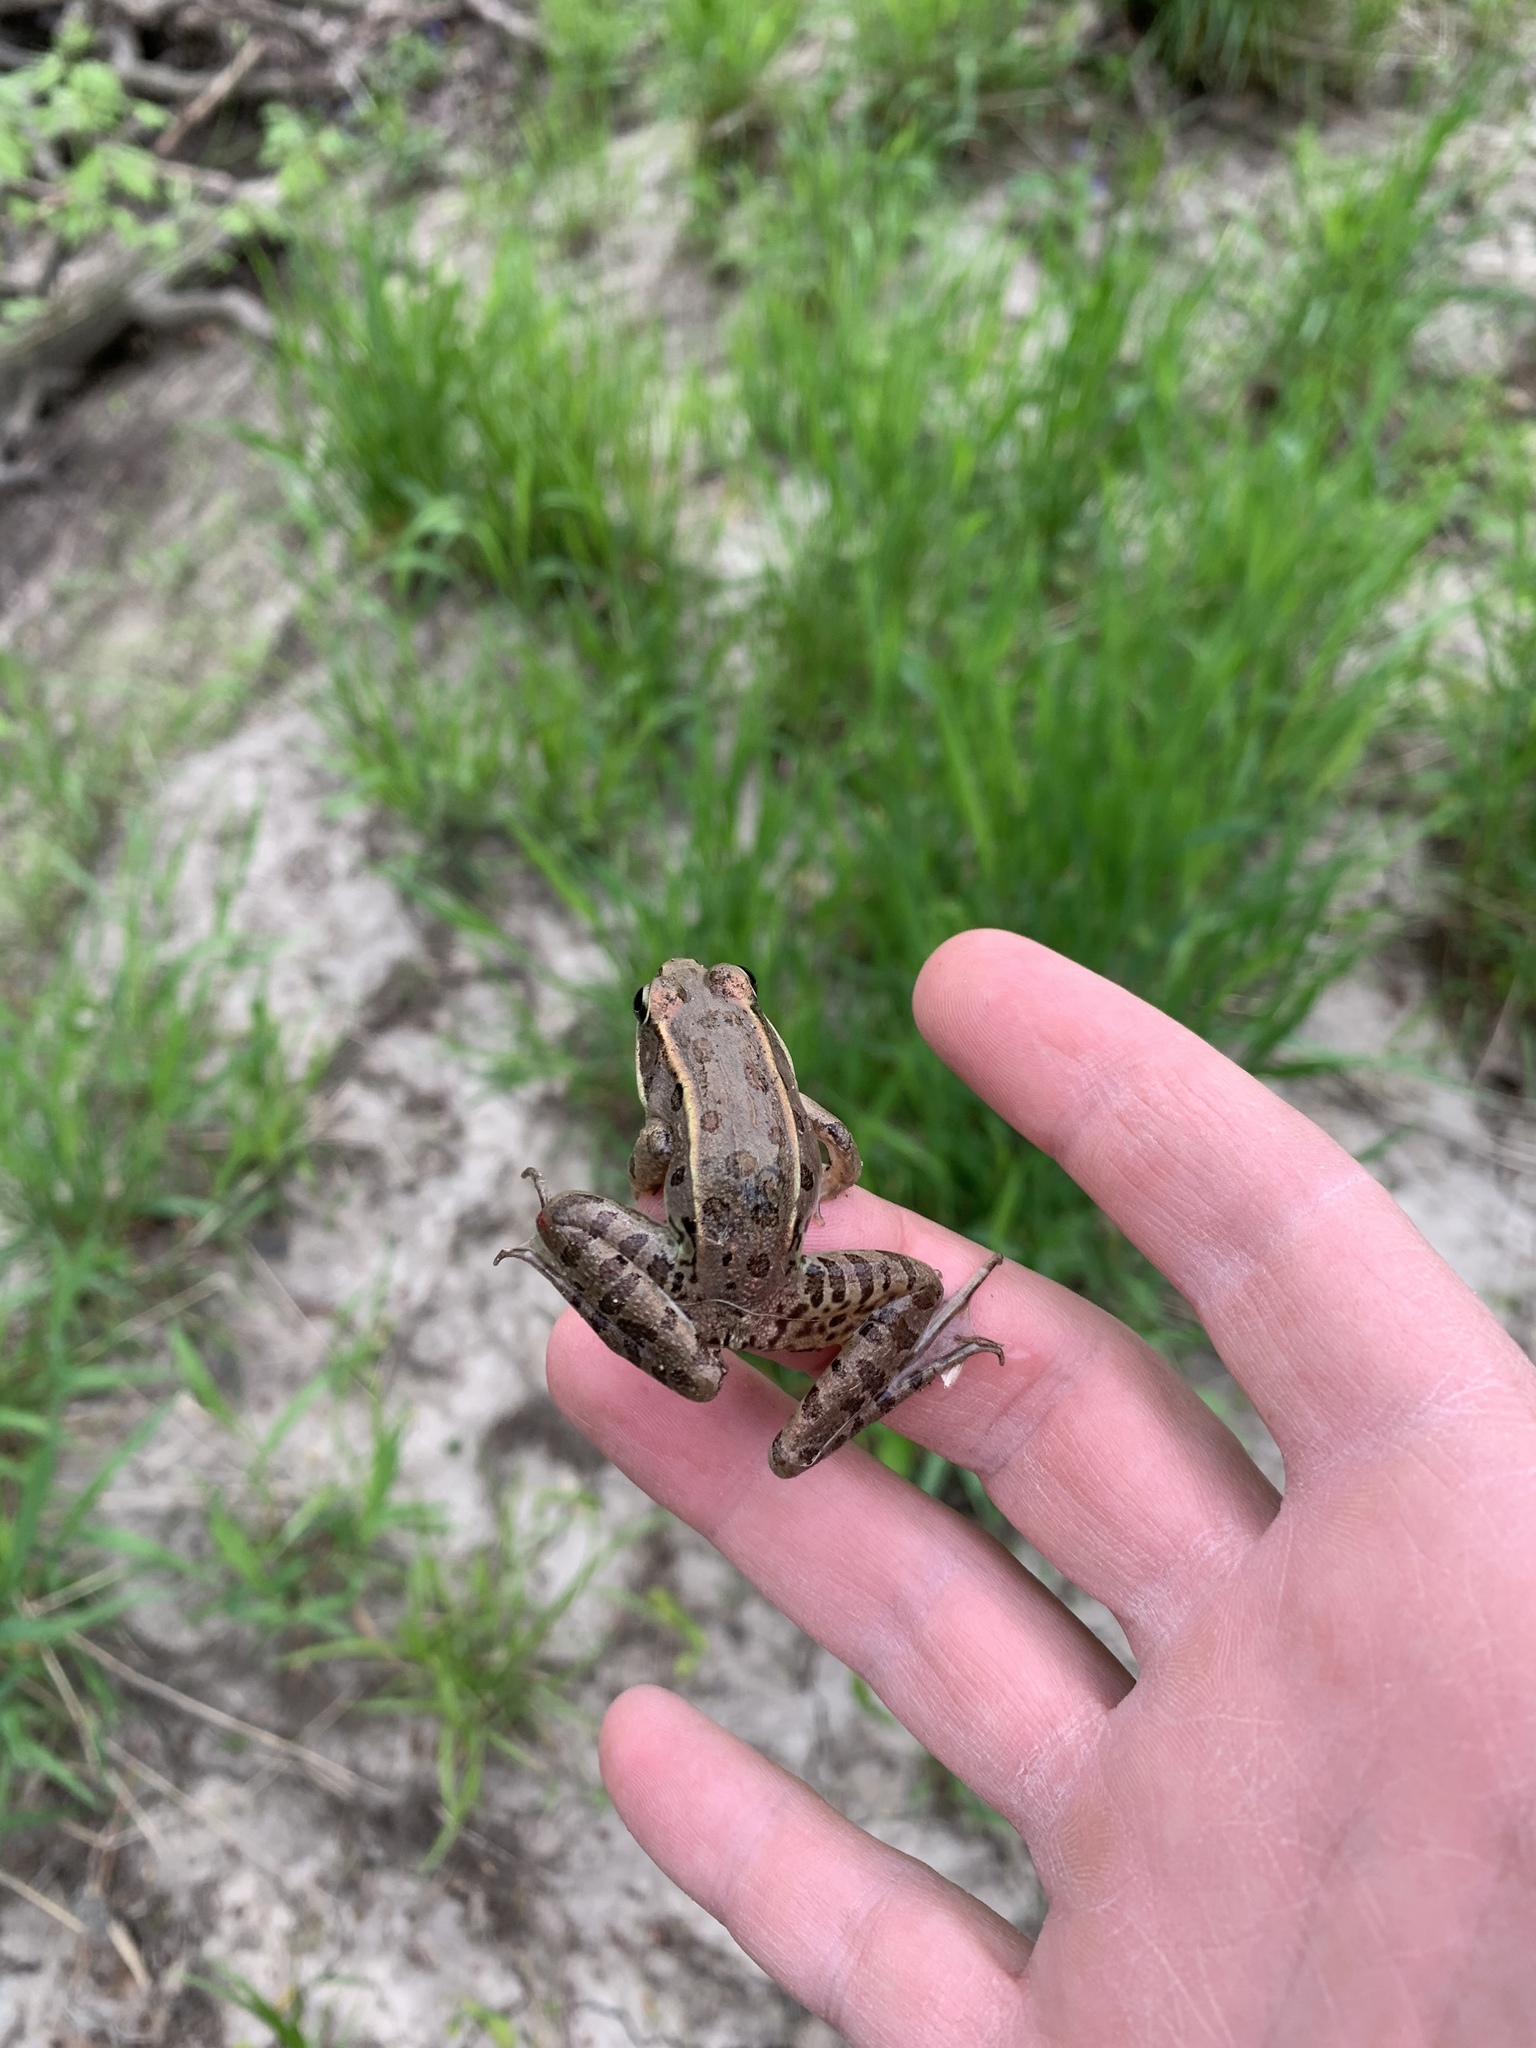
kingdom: Animalia
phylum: Chordata
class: Amphibia
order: Anura
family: Ranidae
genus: Lithobates
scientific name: Lithobates sphenocephalus
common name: Southern leopard frog
